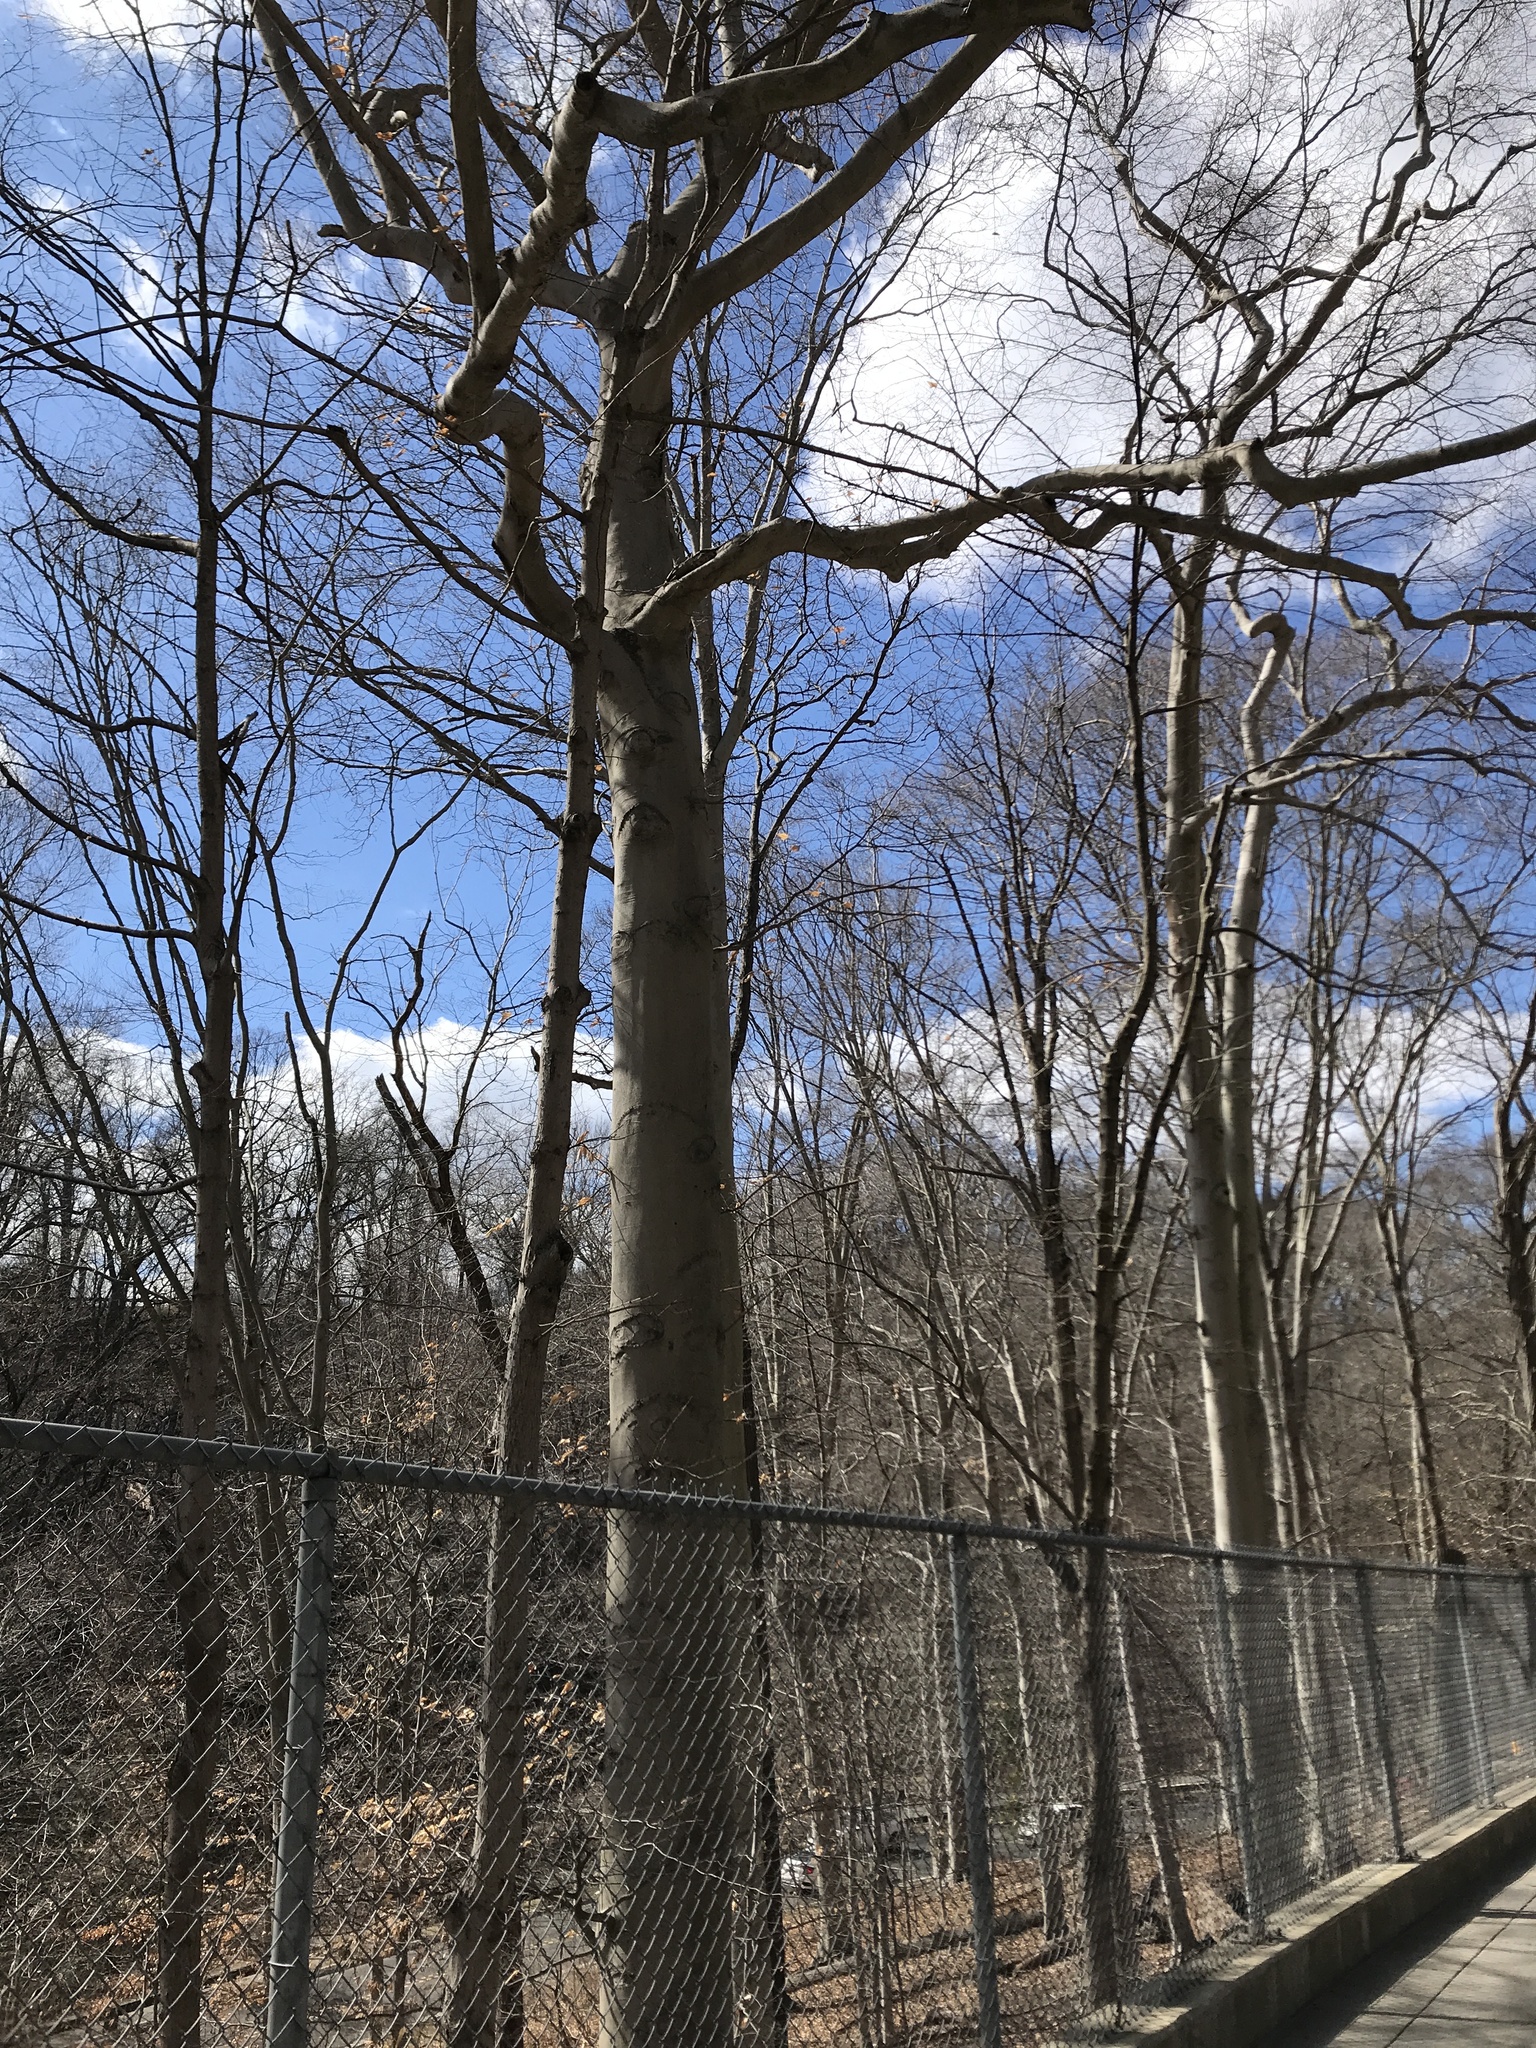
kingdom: Plantae
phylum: Tracheophyta
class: Magnoliopsida
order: Fagales
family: Fagaceae
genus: Fagus
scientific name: Fagus grandifolia
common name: American beech
